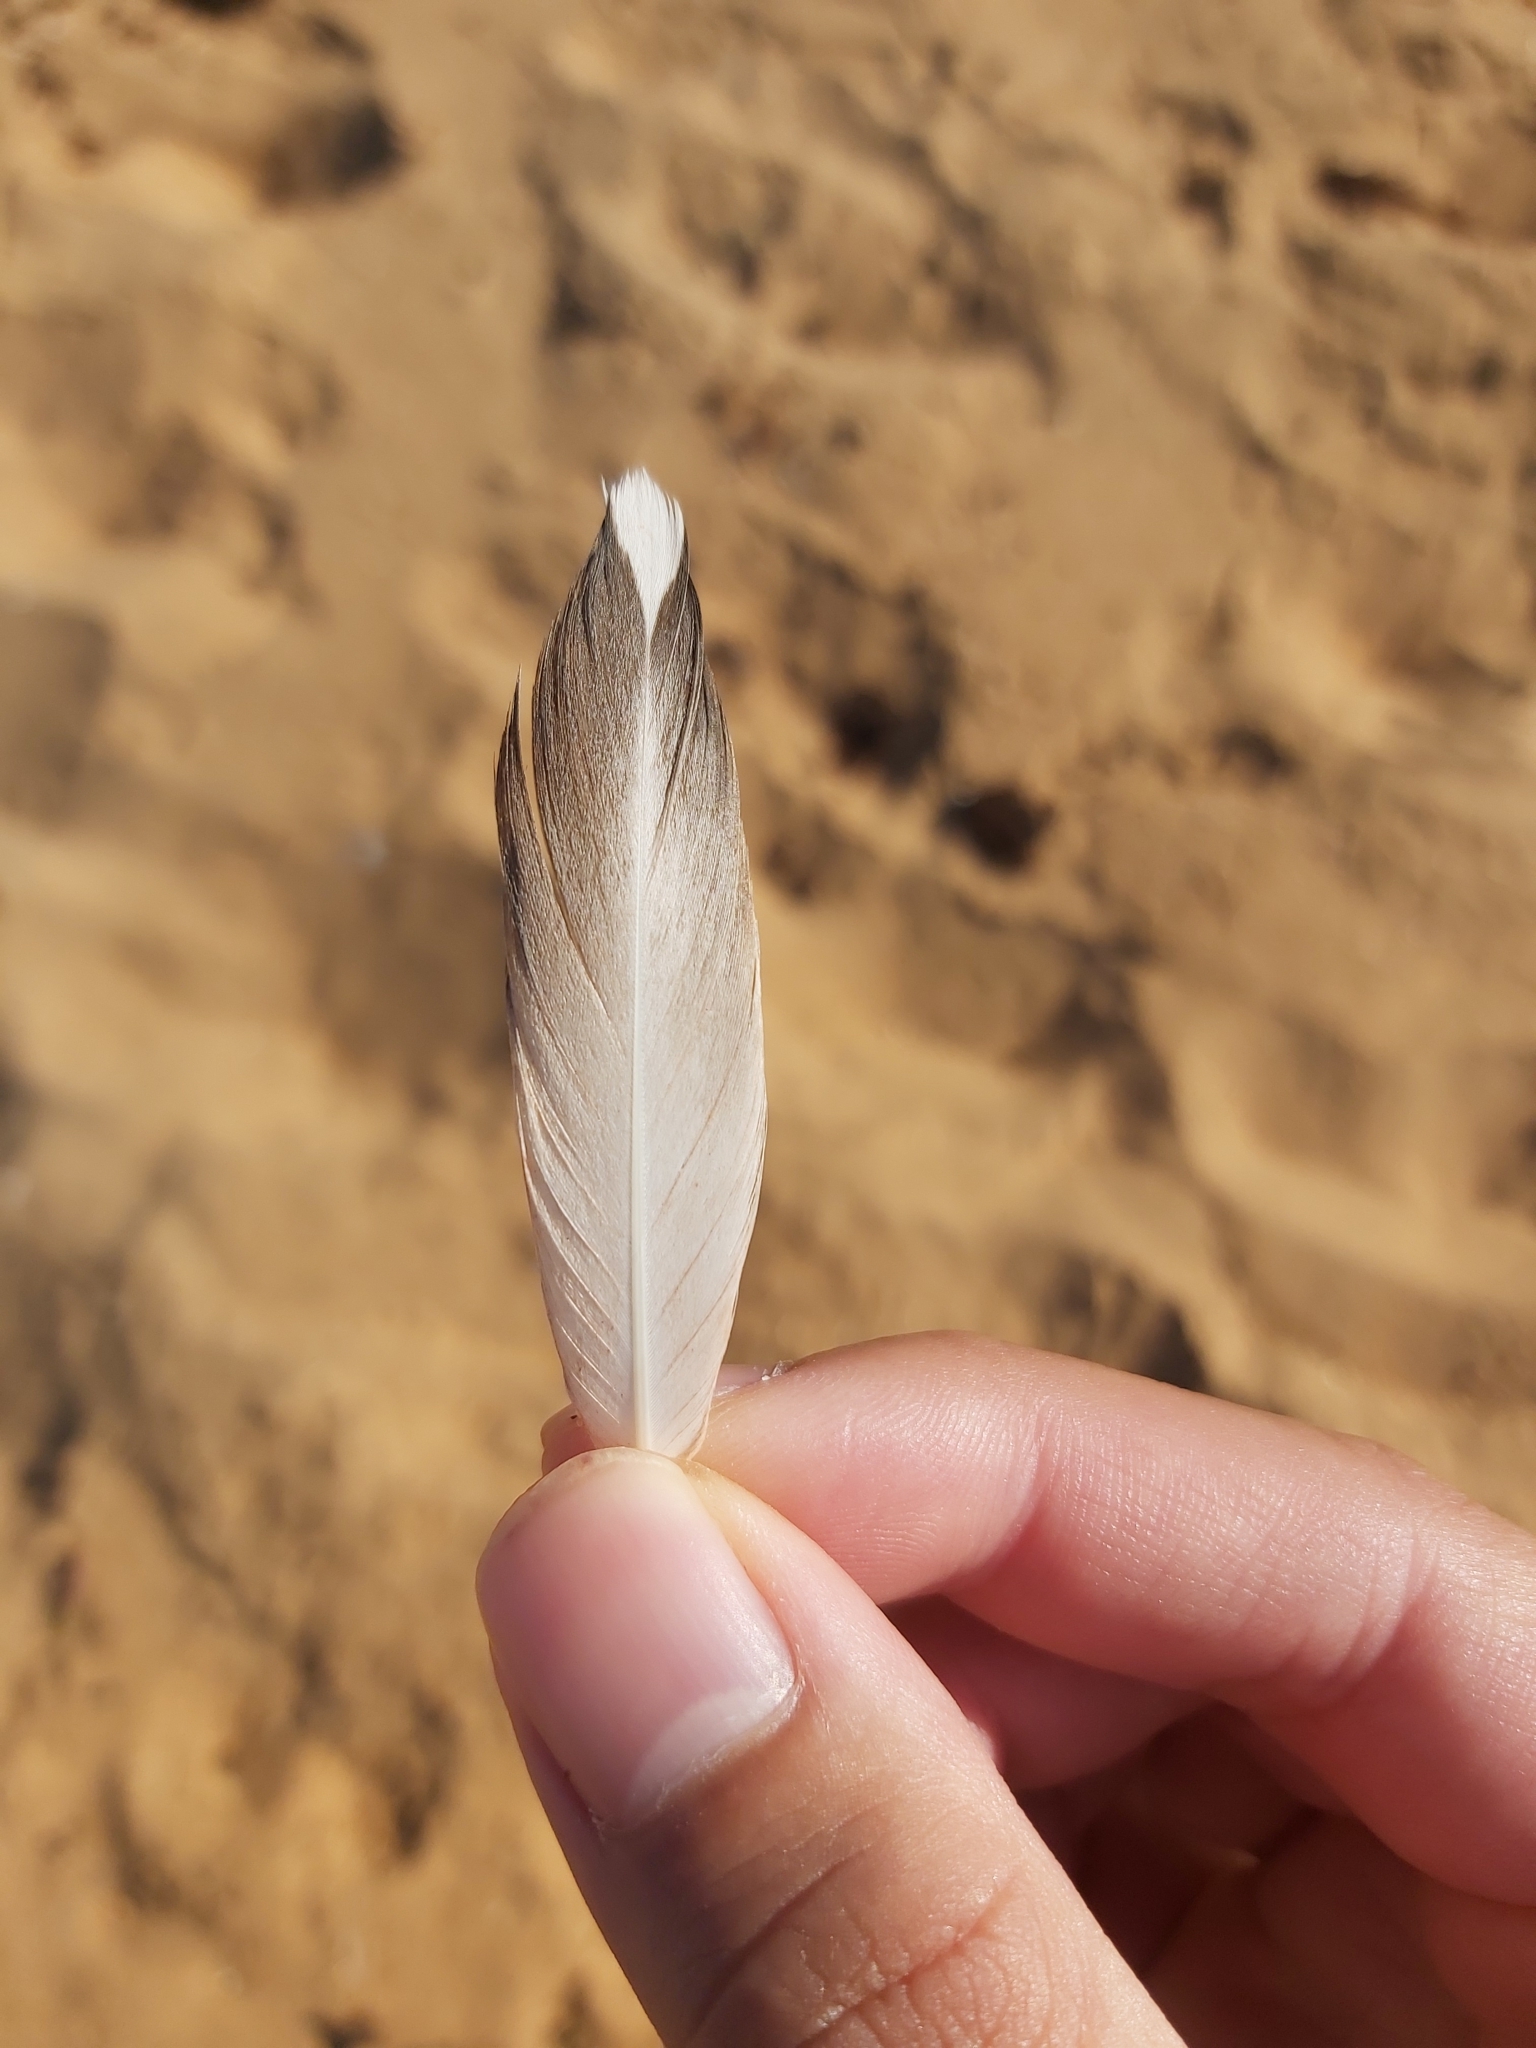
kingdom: Animalia
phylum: Chordata
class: Aves
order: Suliformes
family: Sulidae
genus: Morus
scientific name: Morus serrator
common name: Australasian gannet
